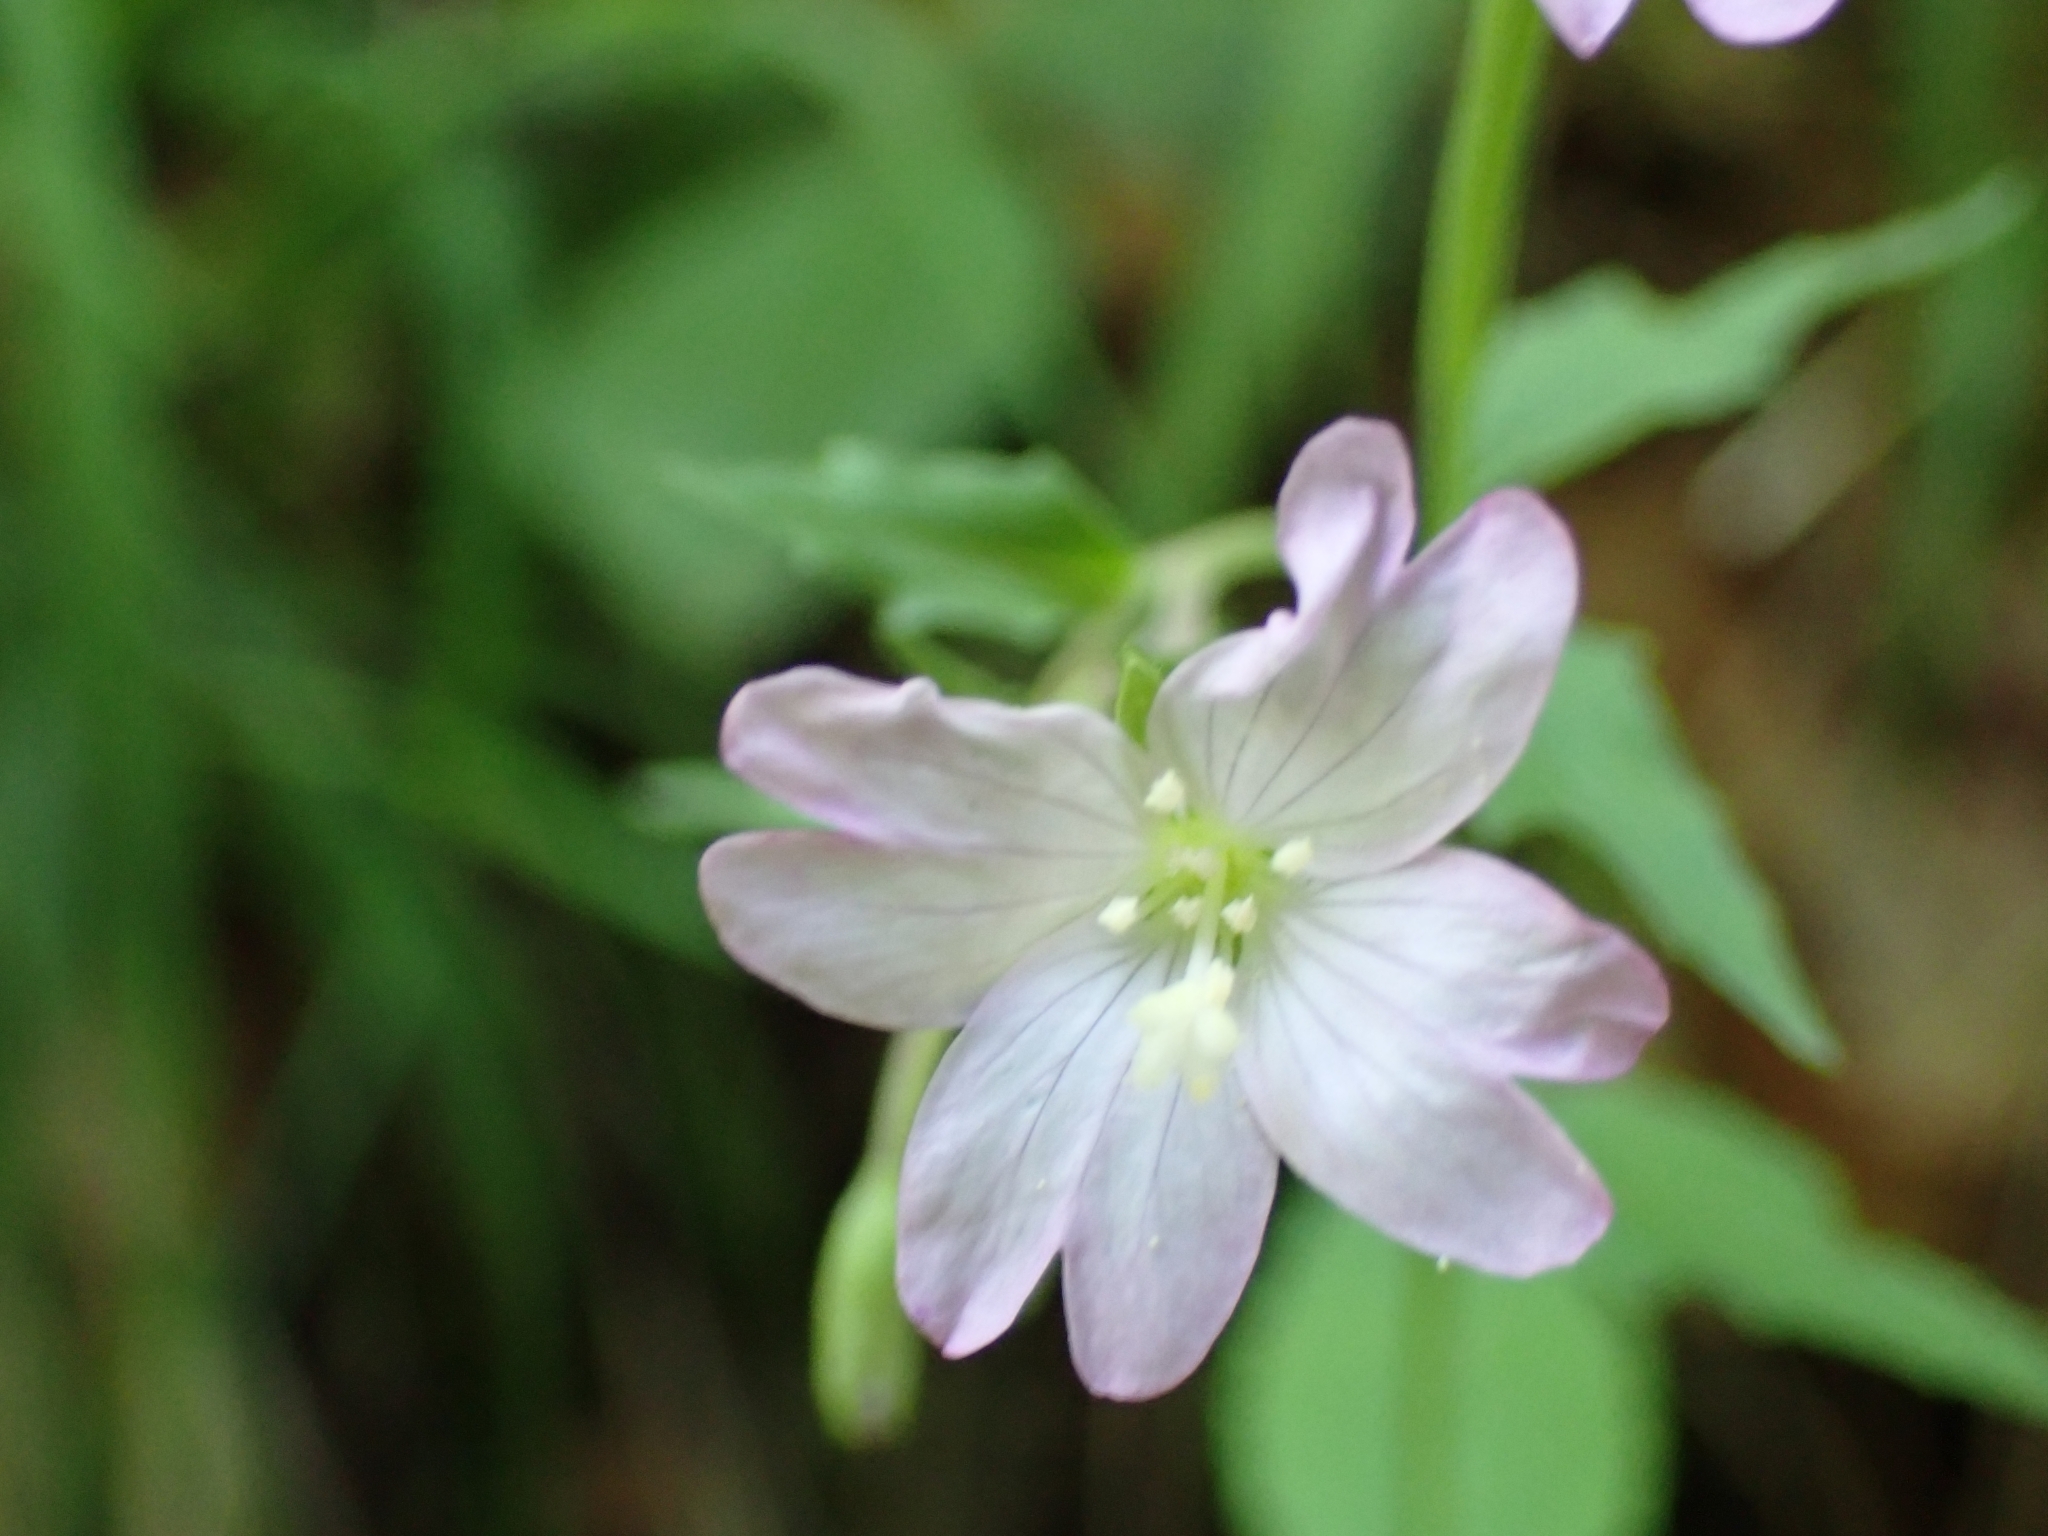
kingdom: Plantae
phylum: Tracheophyta
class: Magnoliopsida
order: Myrtales
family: Onagraceae
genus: Epilobium
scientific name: Epilobium montanum
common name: Broad-leaved willowherb
